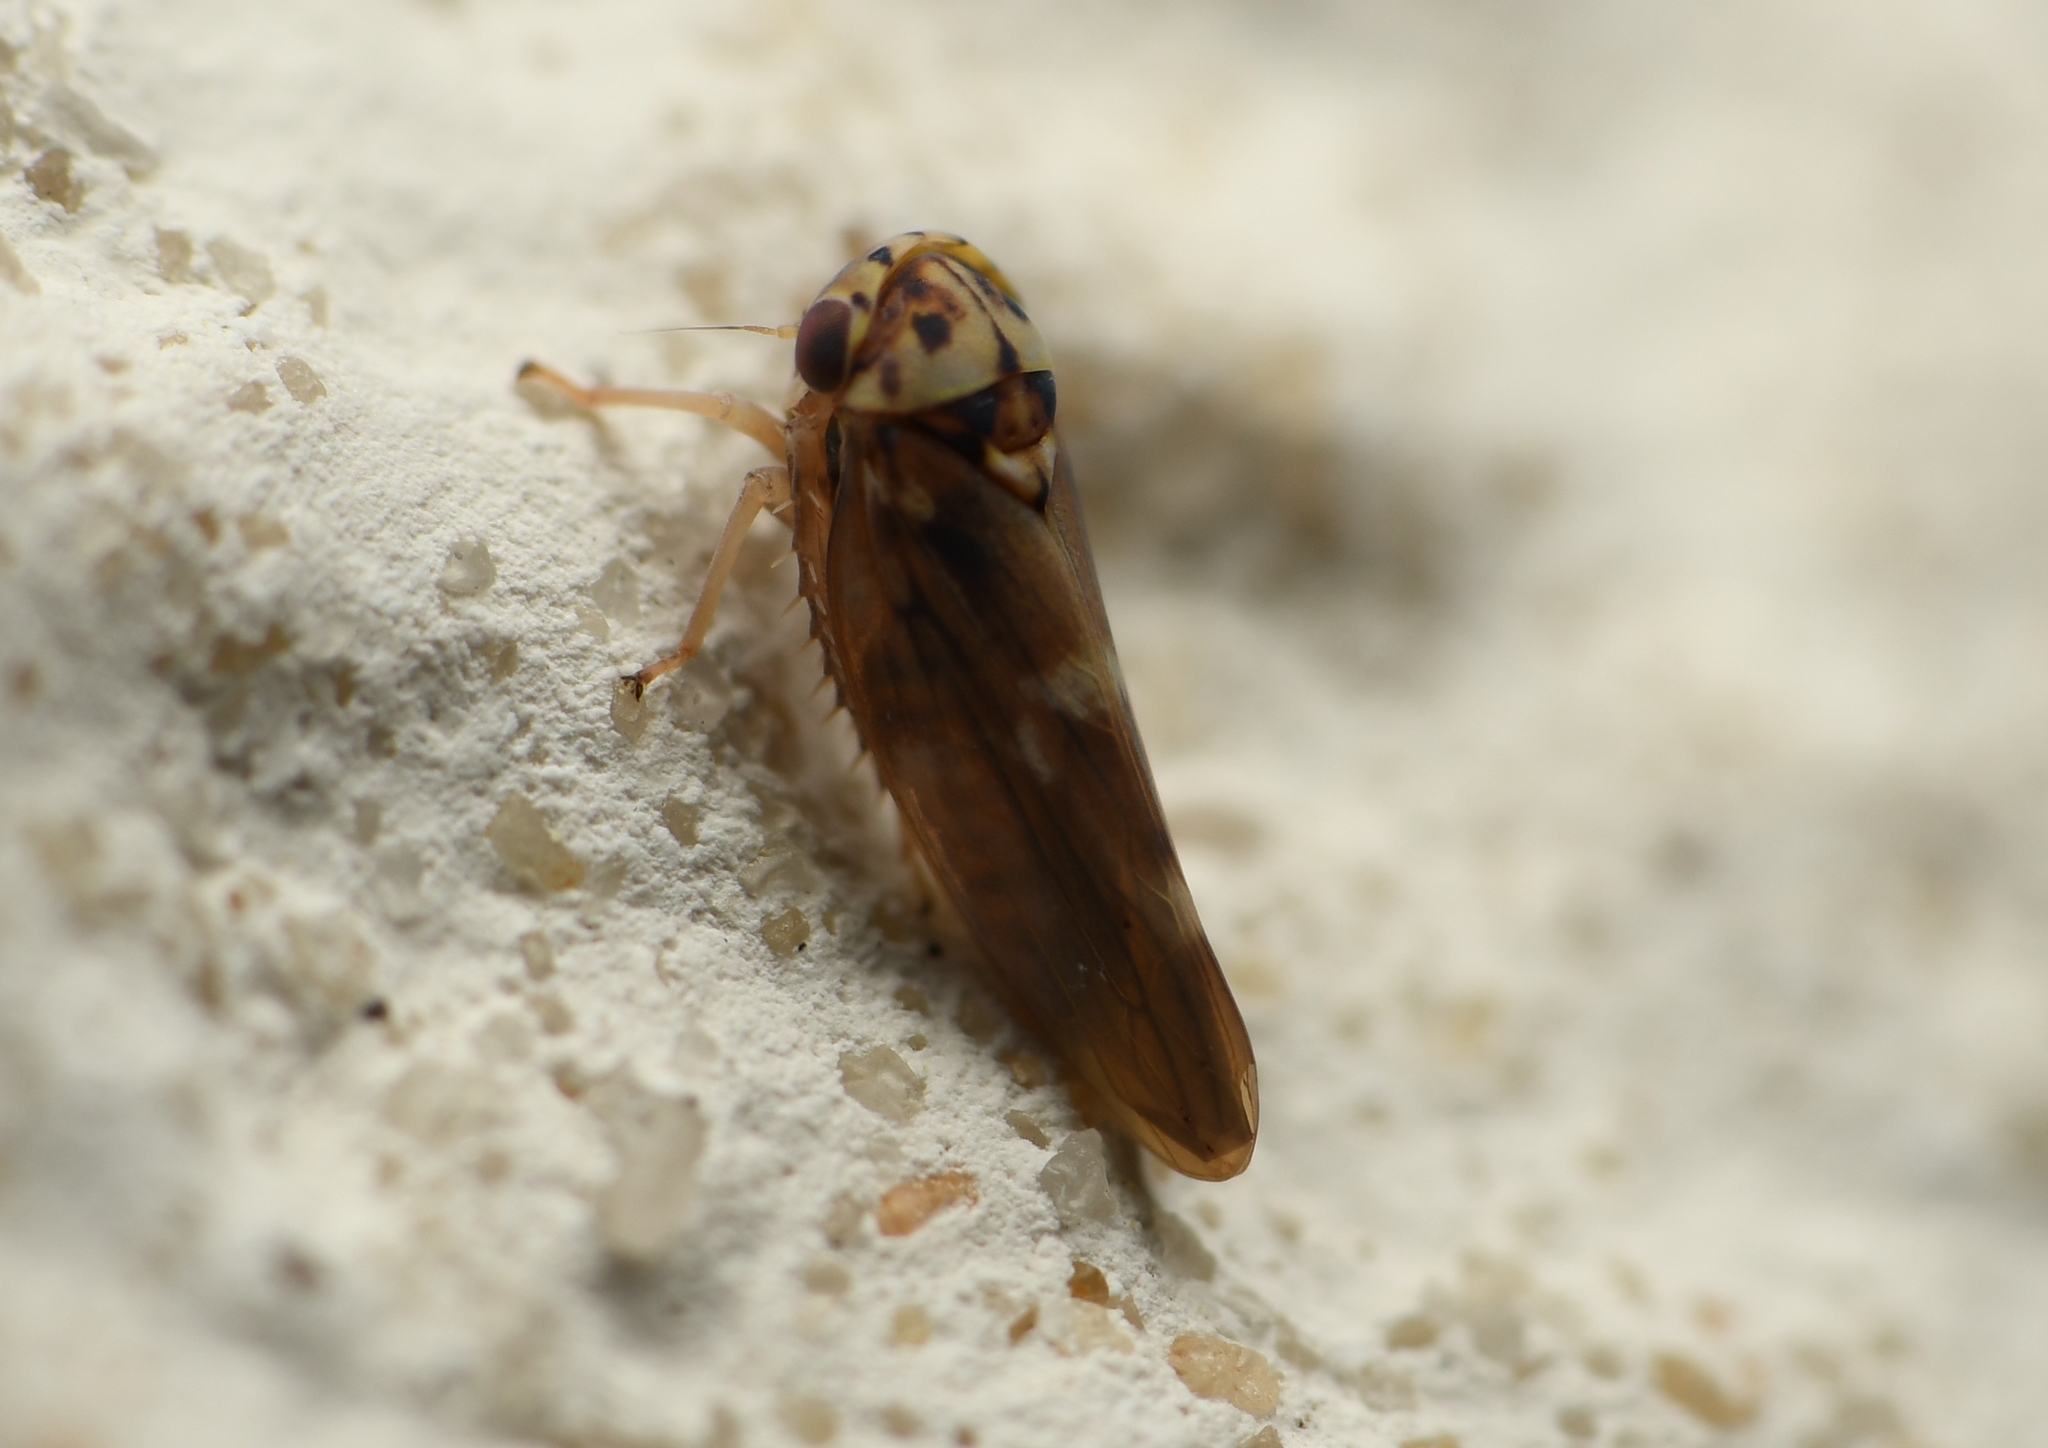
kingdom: Animalia
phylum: Arthropoda
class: Insecta
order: Hemiptera
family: Cicadellidae
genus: Agalliopsis
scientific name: Agalliopsis cervina
